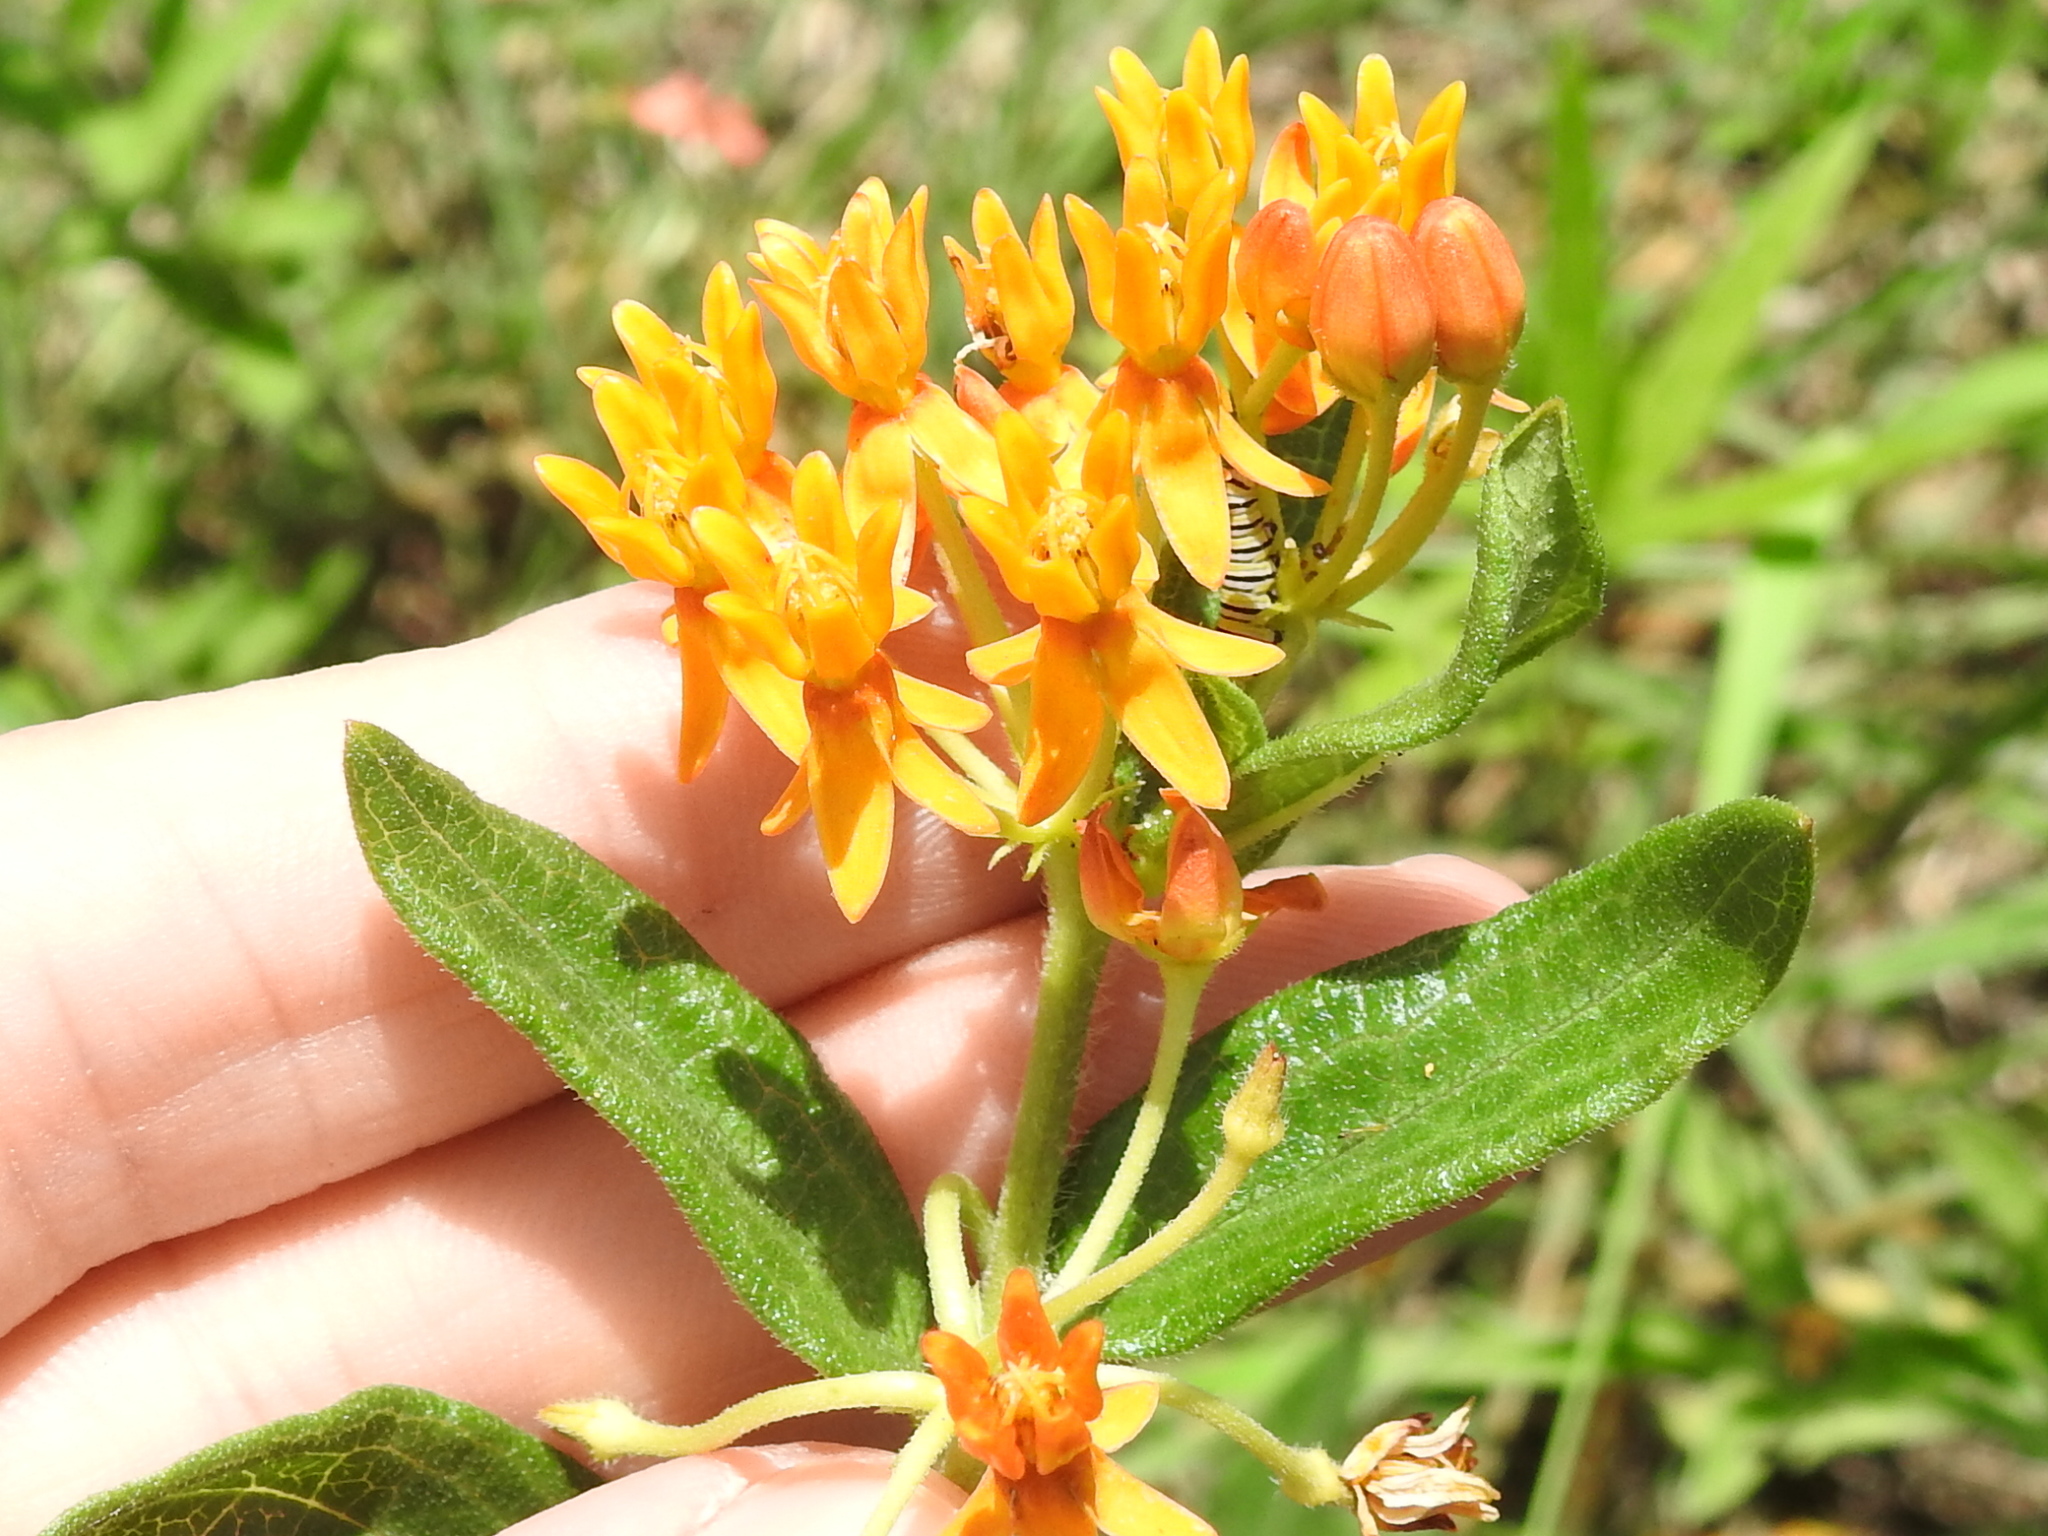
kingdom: Plantae
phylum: Tracheophyta
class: Magnoliopsida
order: Gentianales
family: Apocynaceae
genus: Asclepias
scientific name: Asclepias tuberosa
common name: Butterfly milkweed
